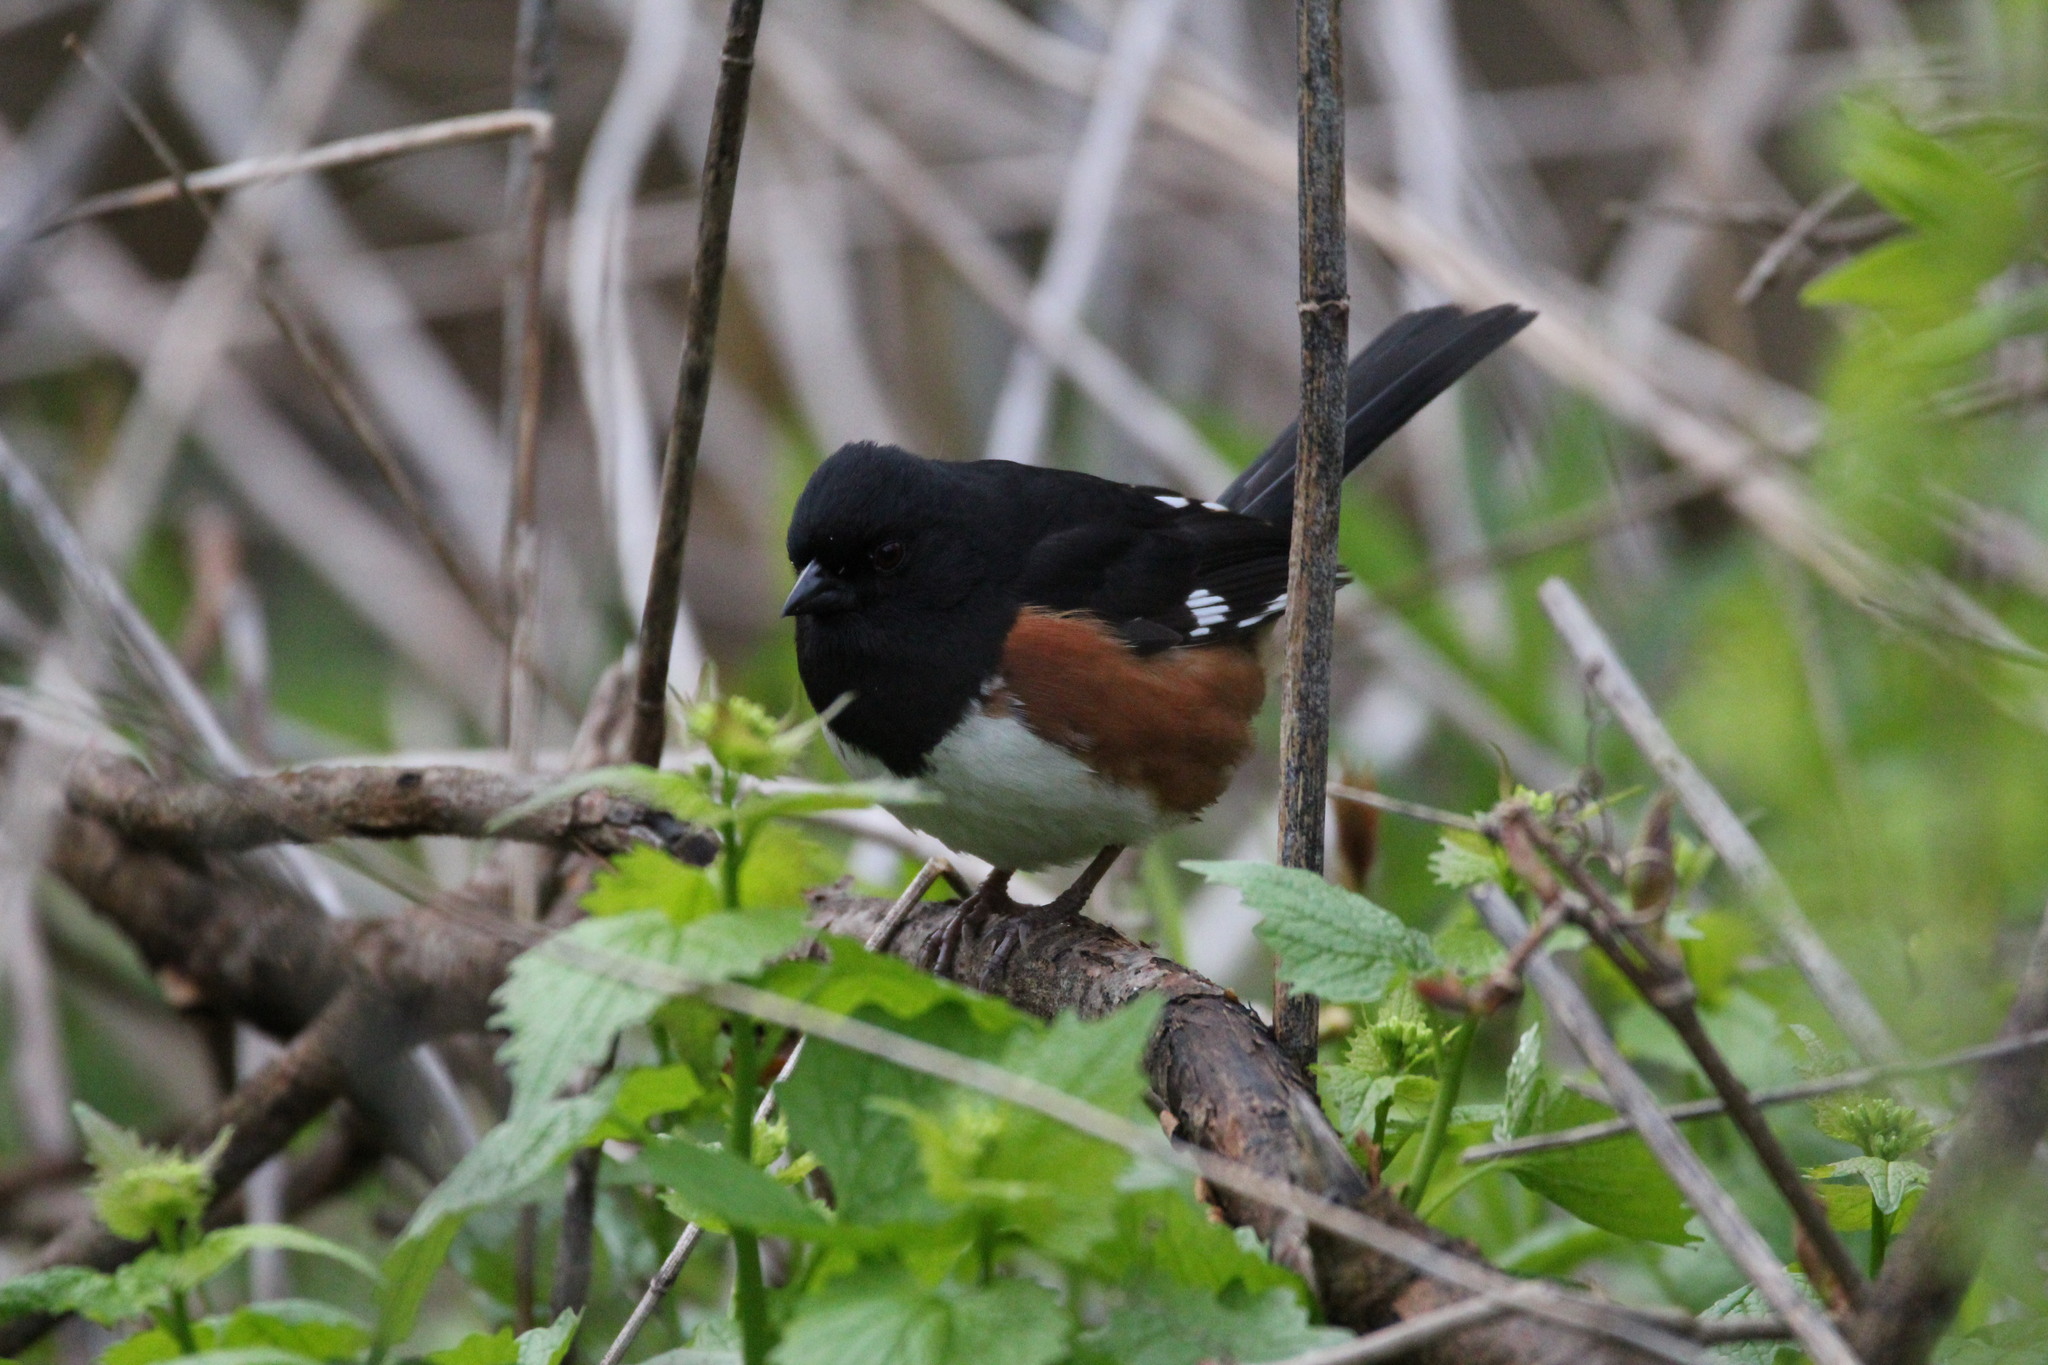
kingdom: Animalia
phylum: Chordata
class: Aves
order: Passeriformes
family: Passerellidae
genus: Pipilo
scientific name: Pipilo erythrophthalmus
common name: Eastern towhee
